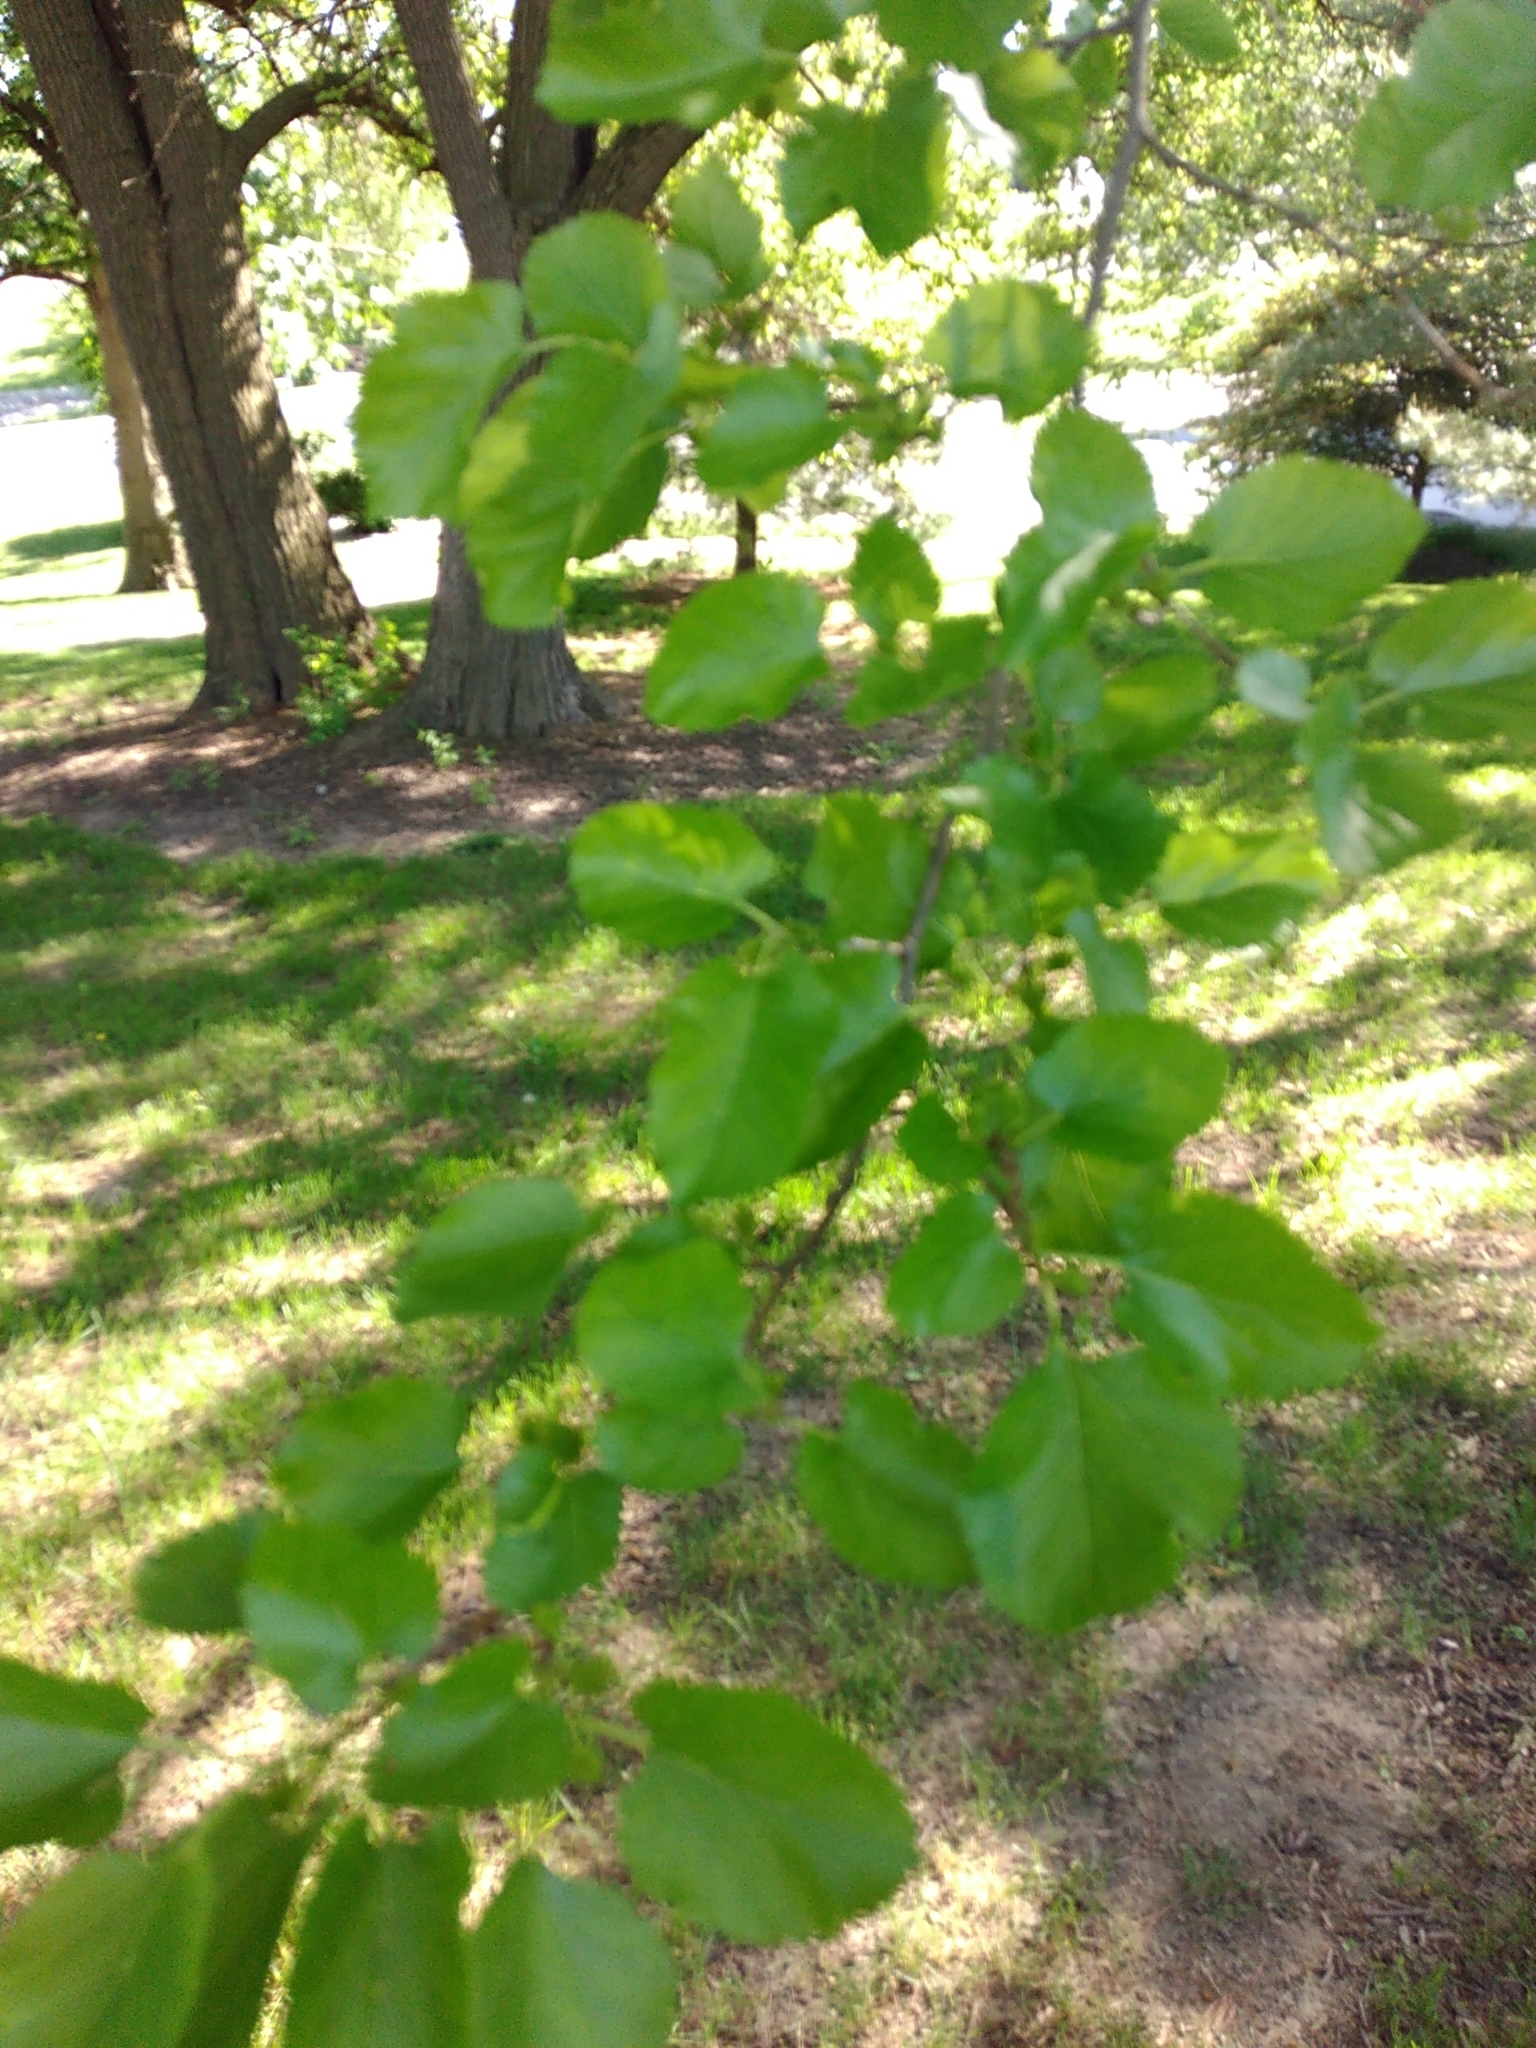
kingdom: Plantae
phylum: Tracheophyta
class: Magnoliopsida
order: Rosales
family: Moraceae
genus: Morus
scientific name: Morus alba
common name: White mulberry
